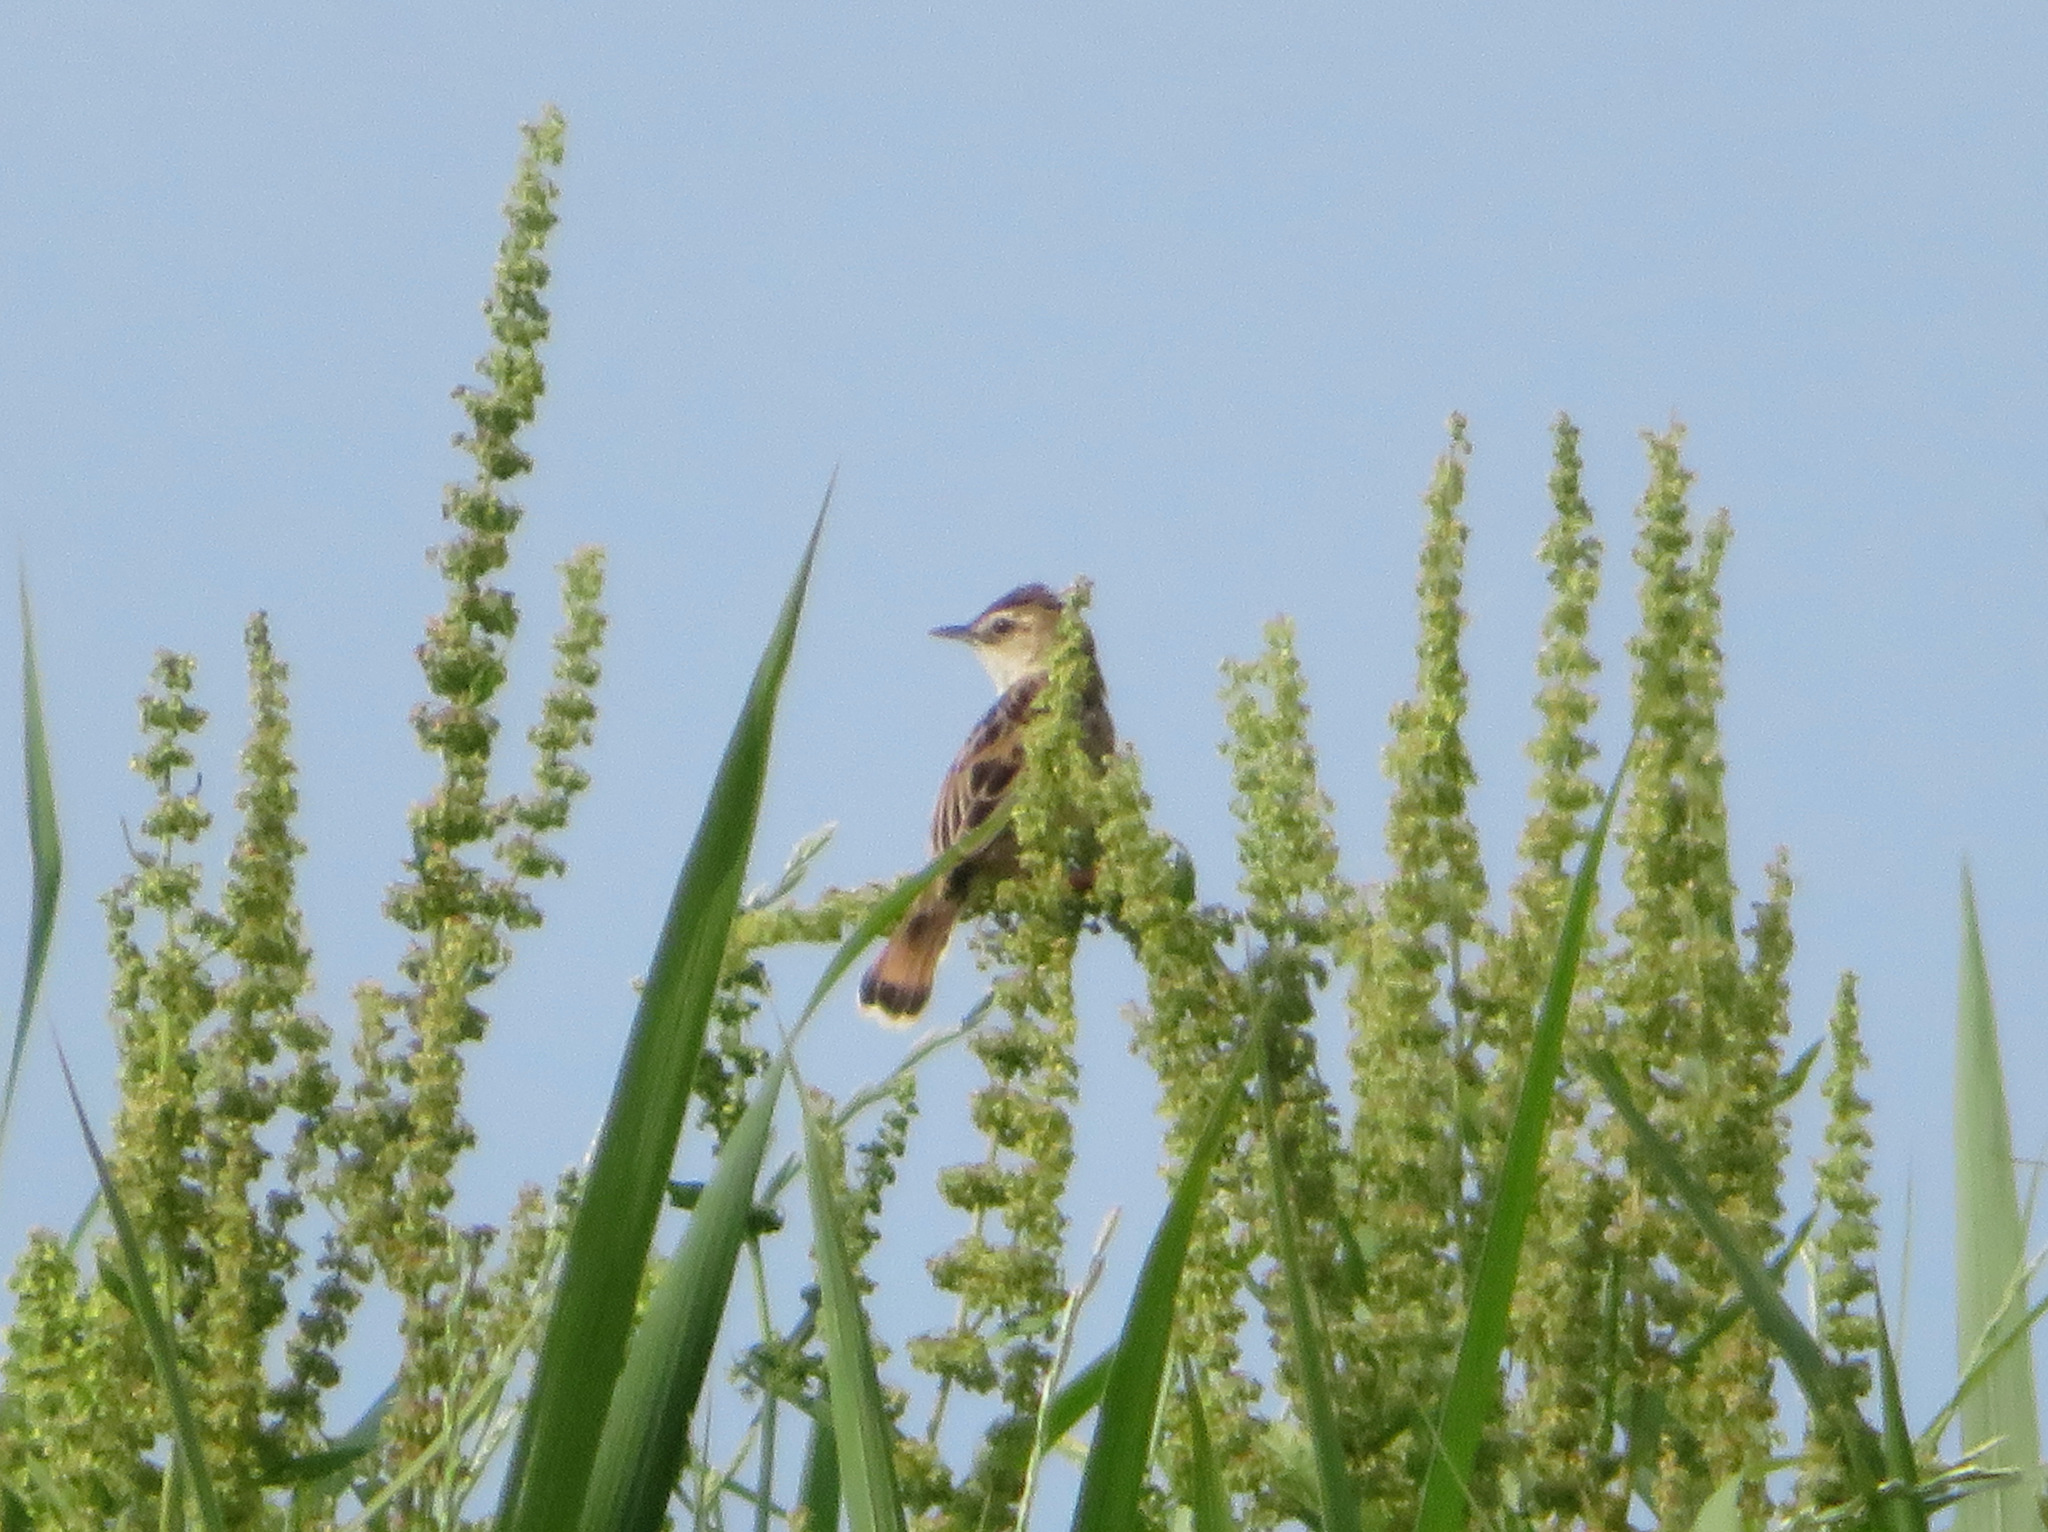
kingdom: Animalia
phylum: Chordata
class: Aves
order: Passeriformes
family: Cisticolidae
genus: Cisticola
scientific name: Cisticola juncidis
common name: Zitting cisticola
